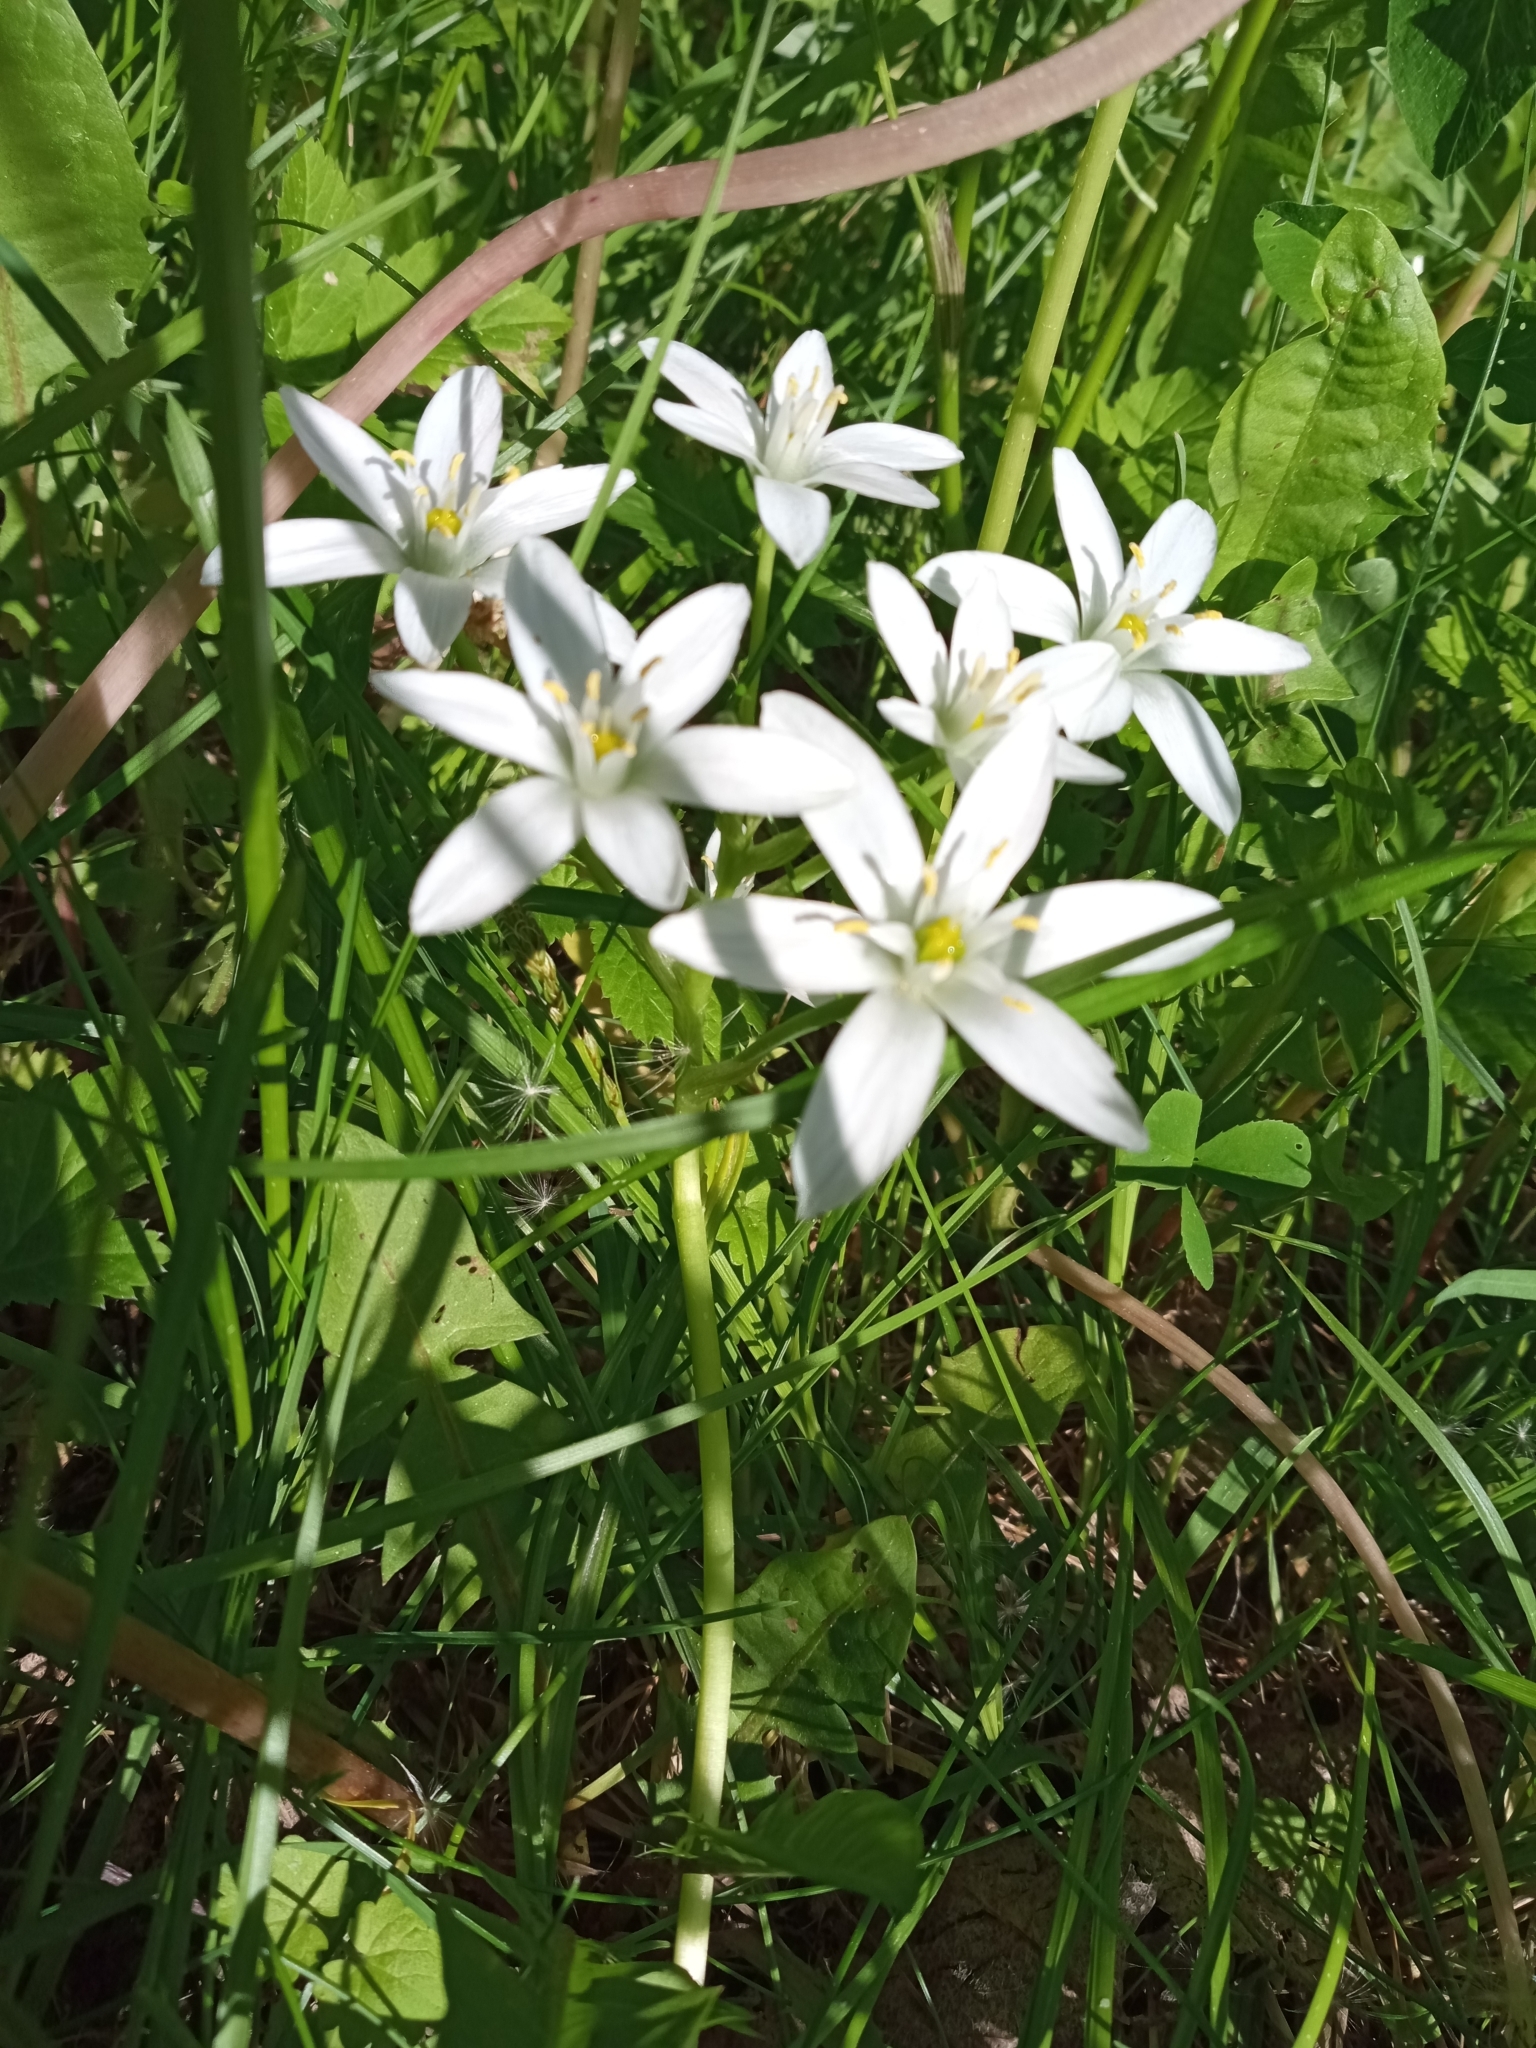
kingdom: Plantae
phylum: Tracheophyta
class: Liliopsida
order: Asparagales
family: Asparagaceae
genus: Ornithogalum
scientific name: Ornithogalum umbellatum
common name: Garden star-of-bethlehem
